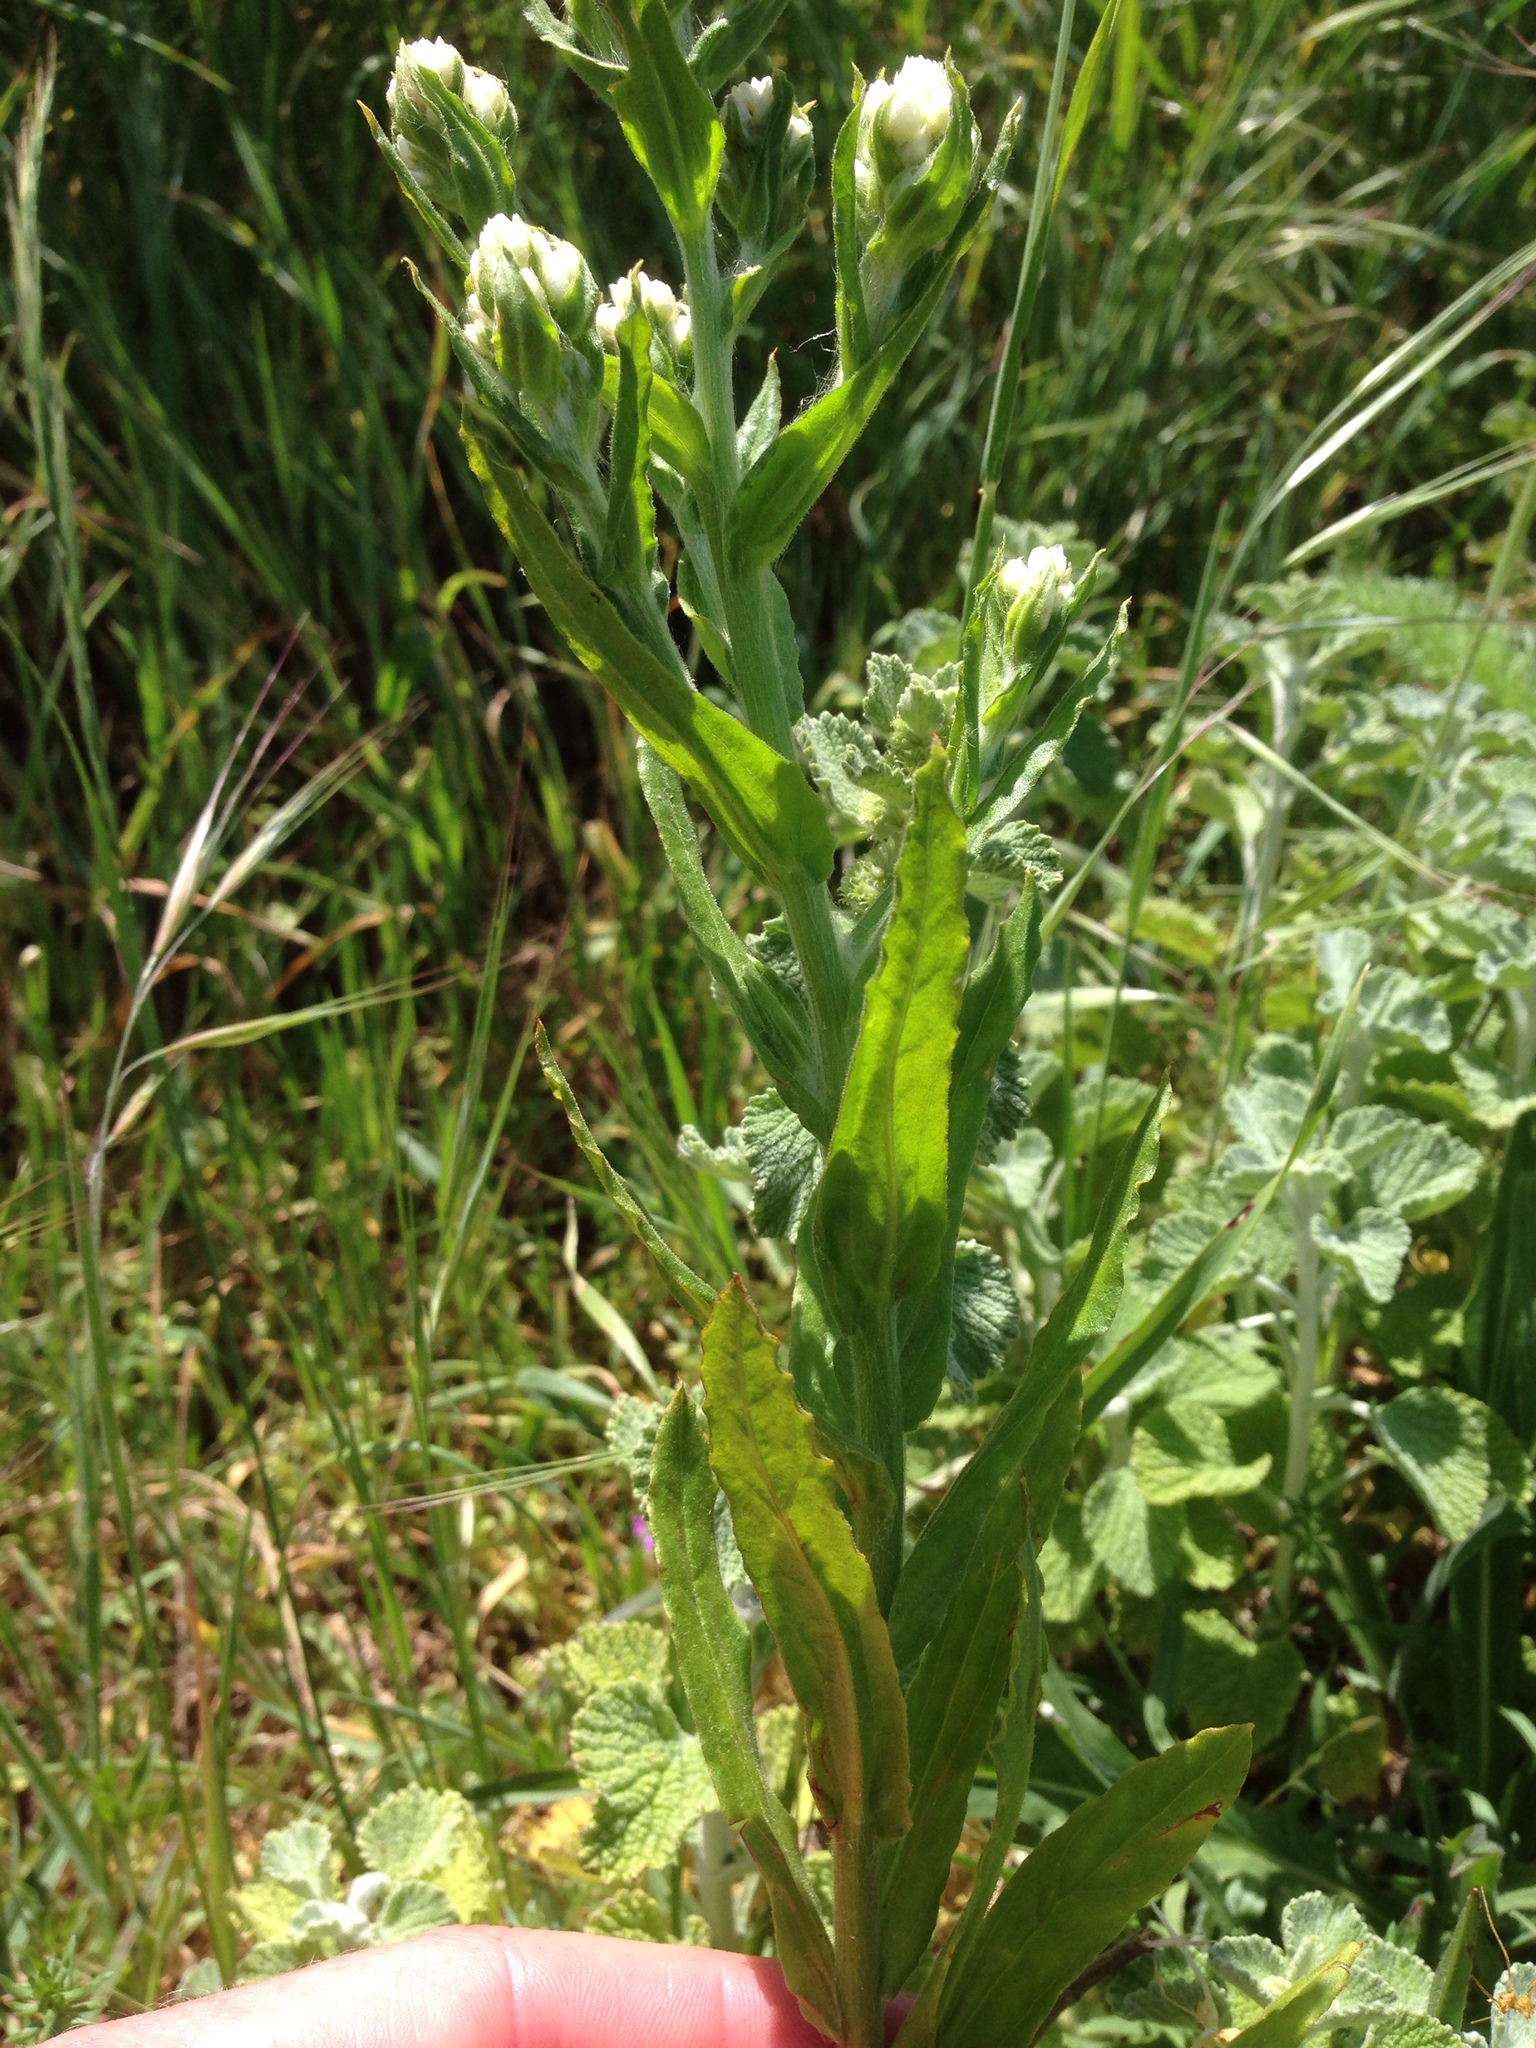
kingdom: Plantae
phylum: Tracheophyta
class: Magnoliopsida
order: Asterales
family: Asteraceae
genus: Pseudognaphalium
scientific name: Pseudognaphalium californicum
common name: California rabbit-tobacco
